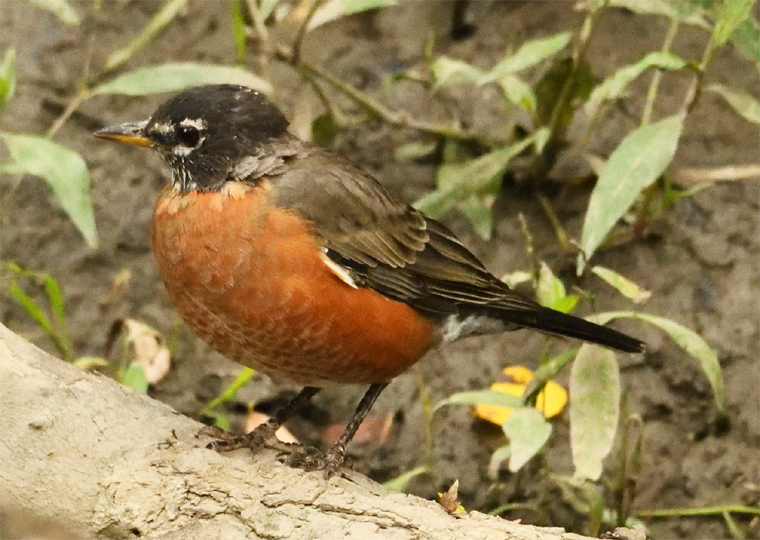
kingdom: Animalia
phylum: Chordata
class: Aves
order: Passeriformes
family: Turdidae
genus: Turdus
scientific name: Turdus migratorius
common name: American robin
